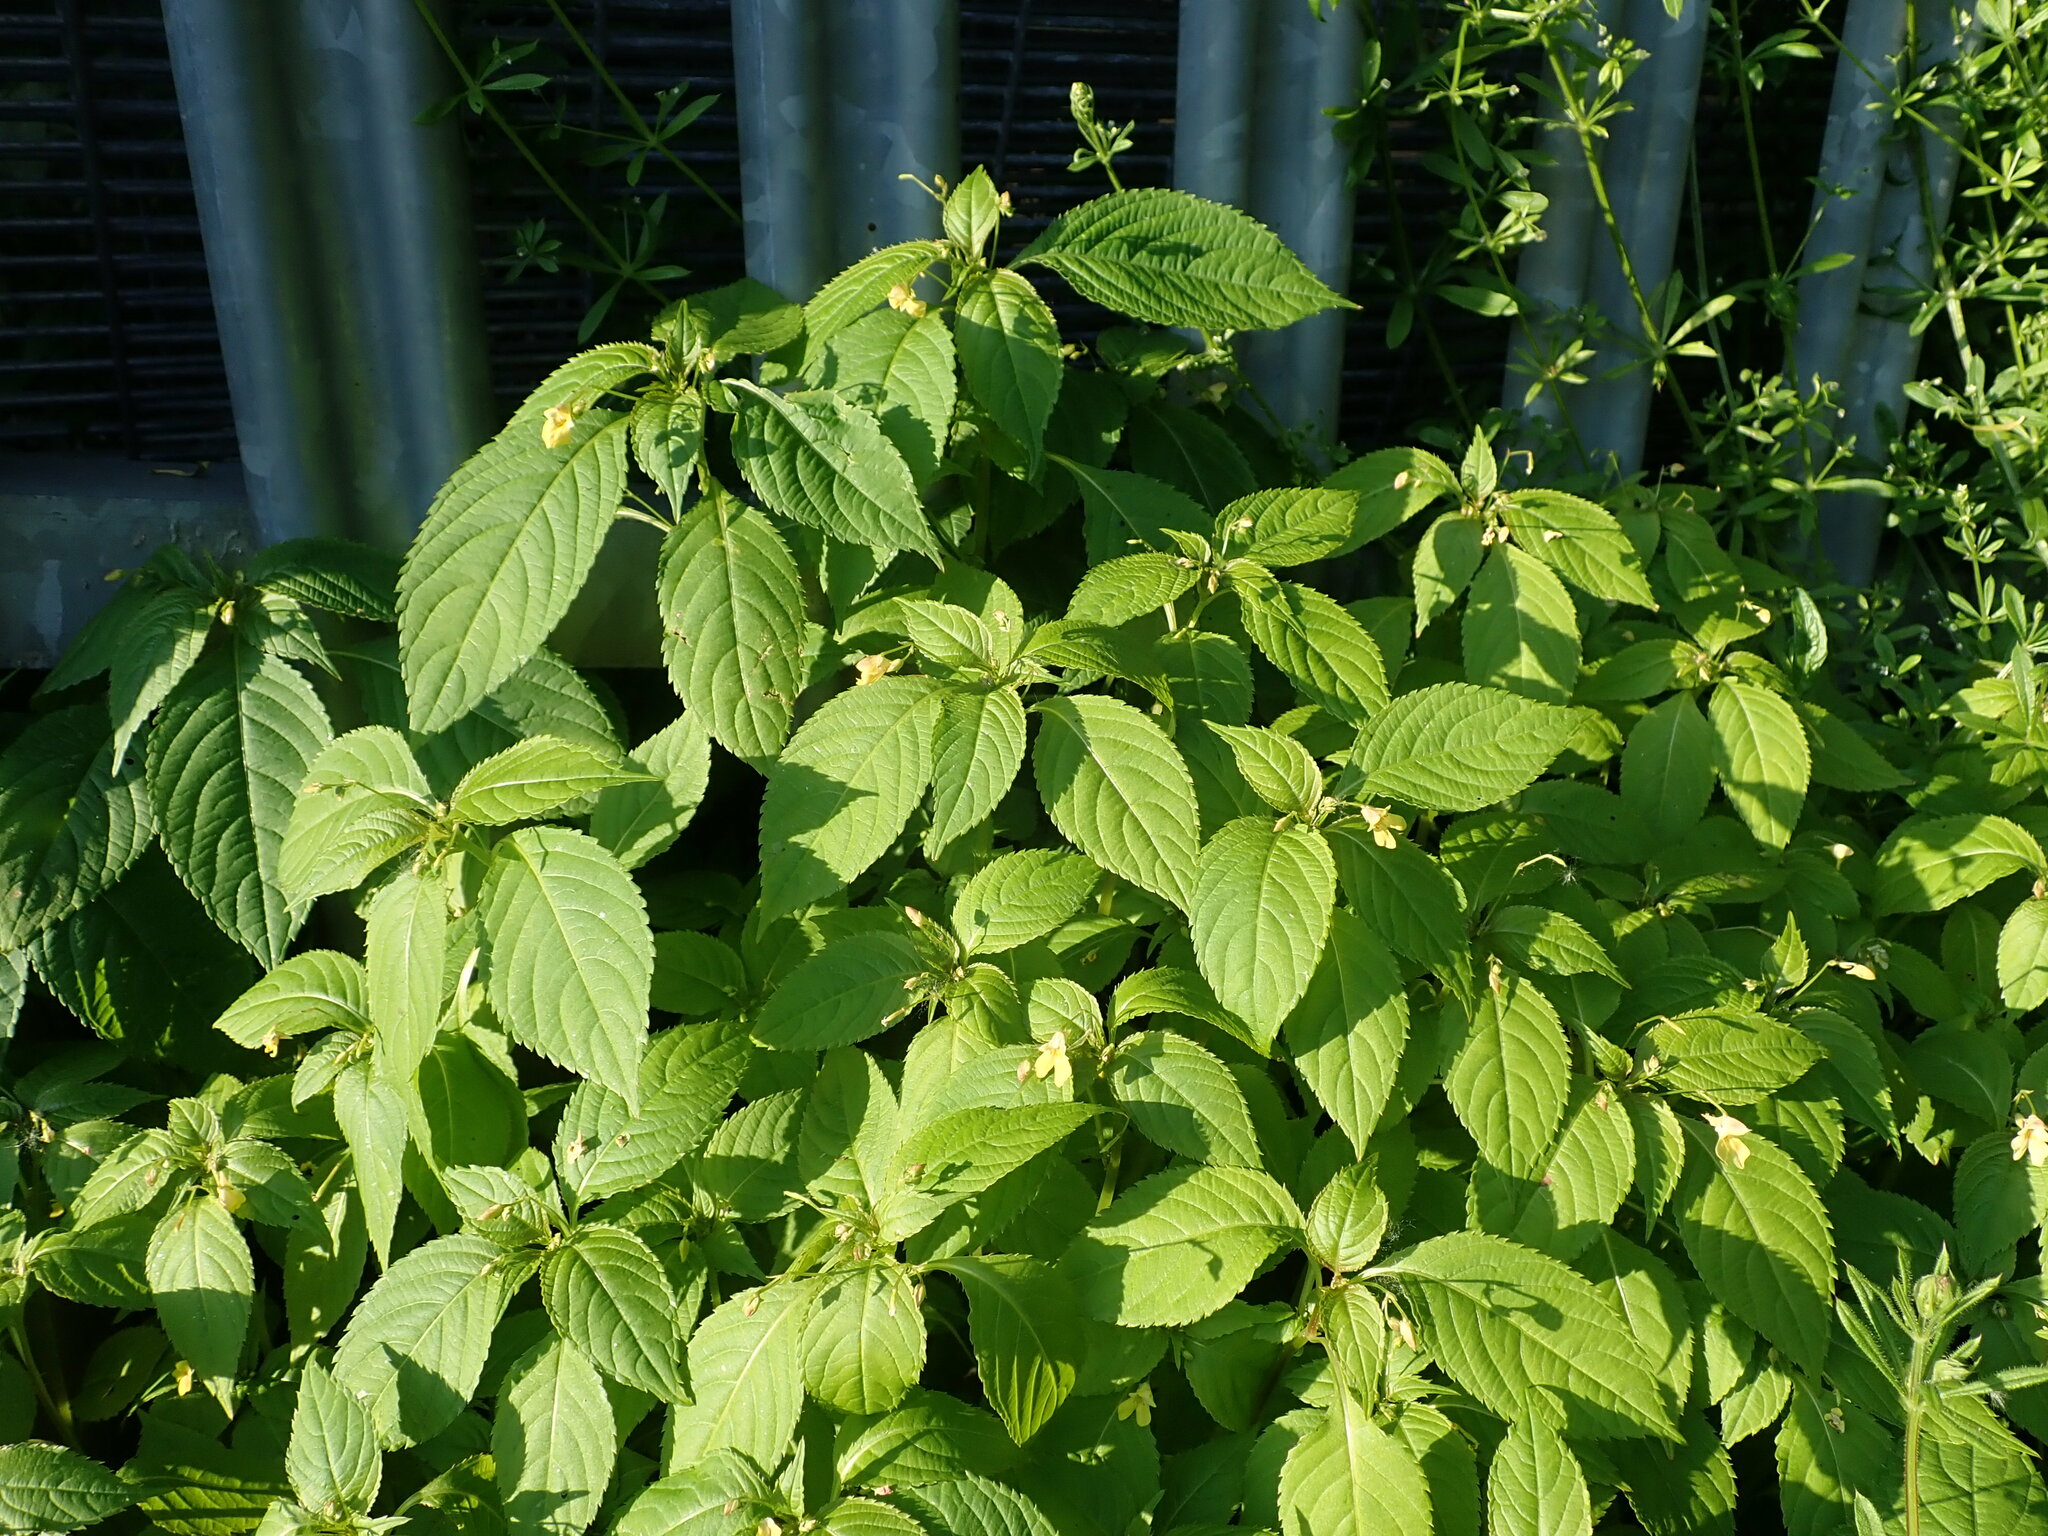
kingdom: Plantae
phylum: Tracheophyta
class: Magnoliopsida
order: Ericales
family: Balsaminaceae
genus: Impatiens
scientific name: Impatiens parviflora
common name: Small balsam
